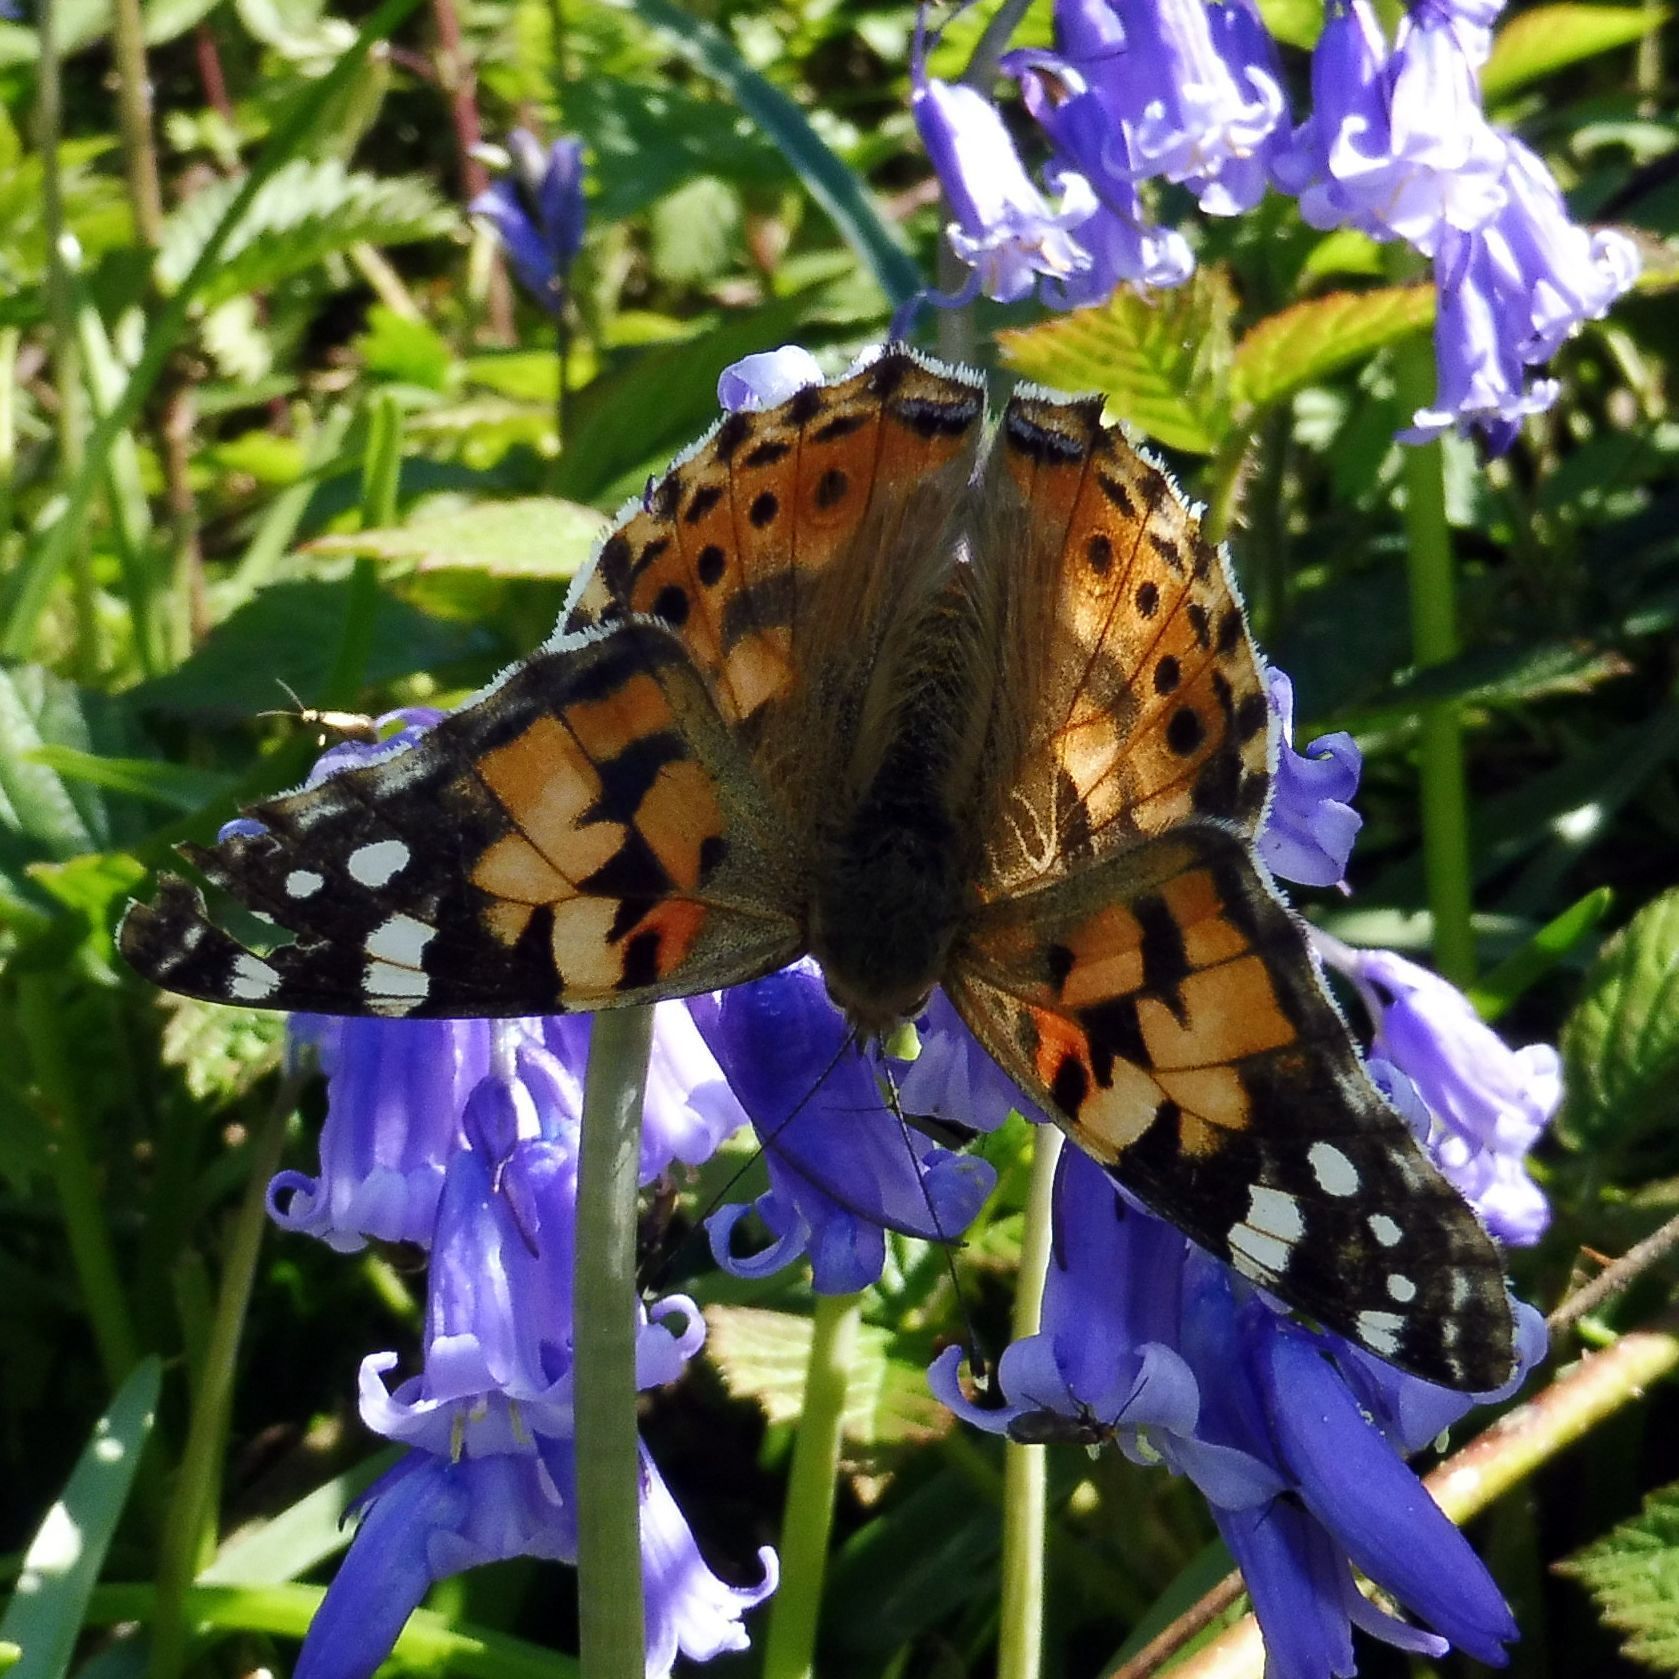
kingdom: Animalia
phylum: Arthropoda
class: Insecta
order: Lepidoptera
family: Nymphalidae
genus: Vanessa
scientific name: Vanessa cardui
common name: Painted lady
